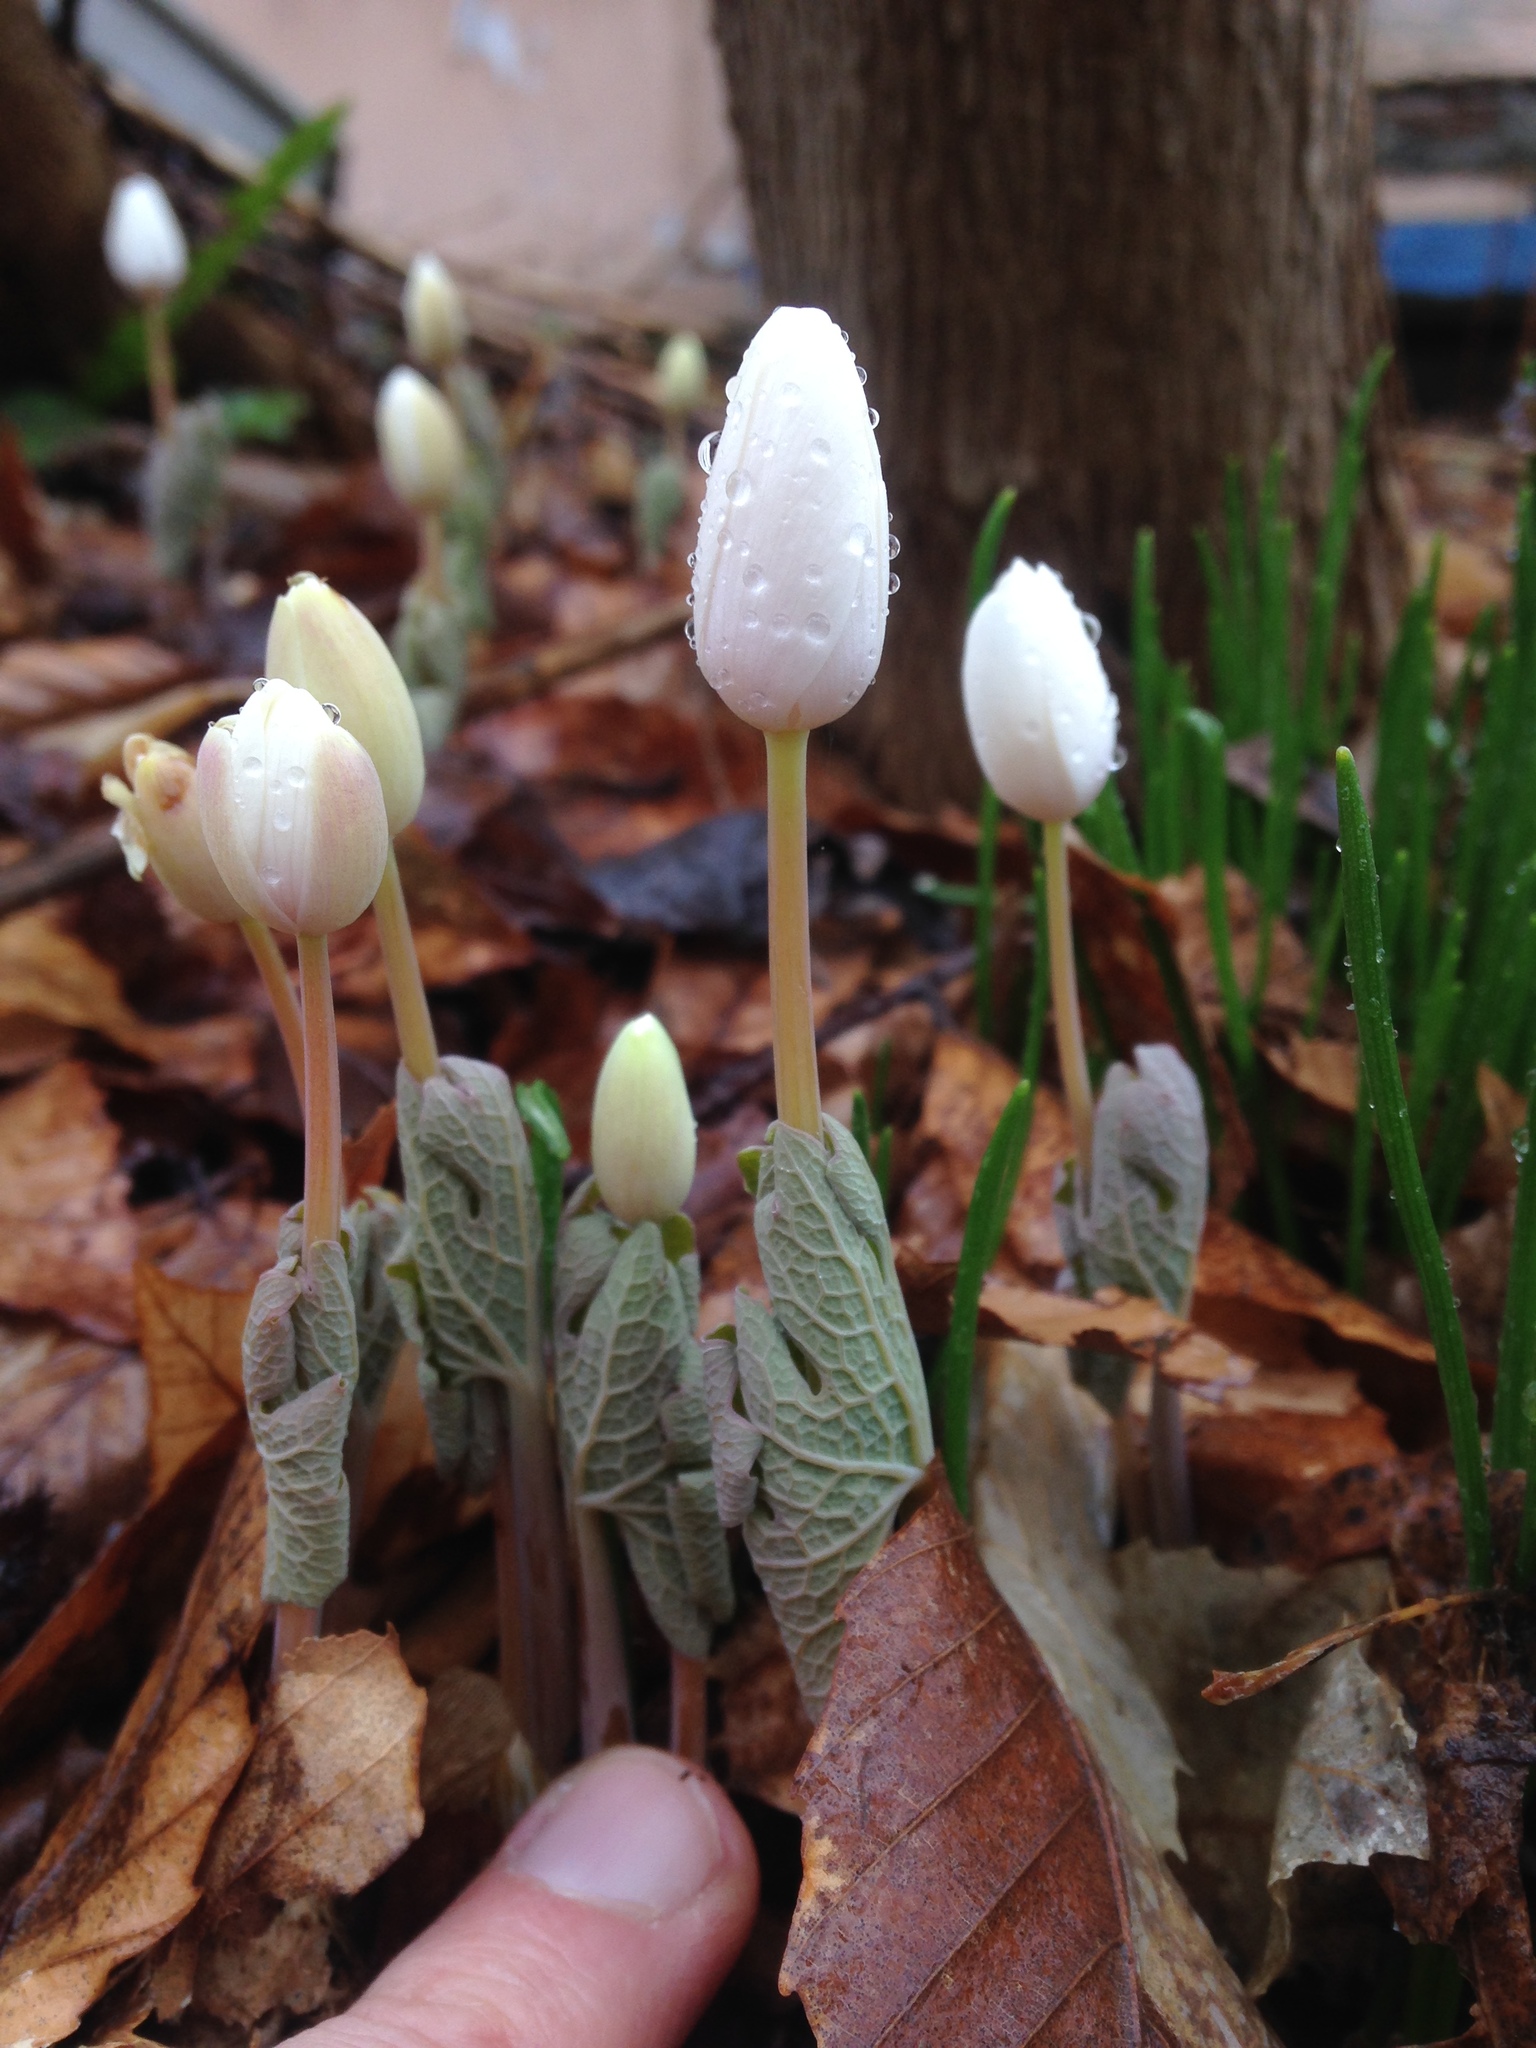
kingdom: Plantae
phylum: Tracheophyta
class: Magnoliopsida
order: Ranunculales
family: Papaveraceae
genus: Sanguinaria
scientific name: Sanguinaria canadensis
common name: Bloodroot
